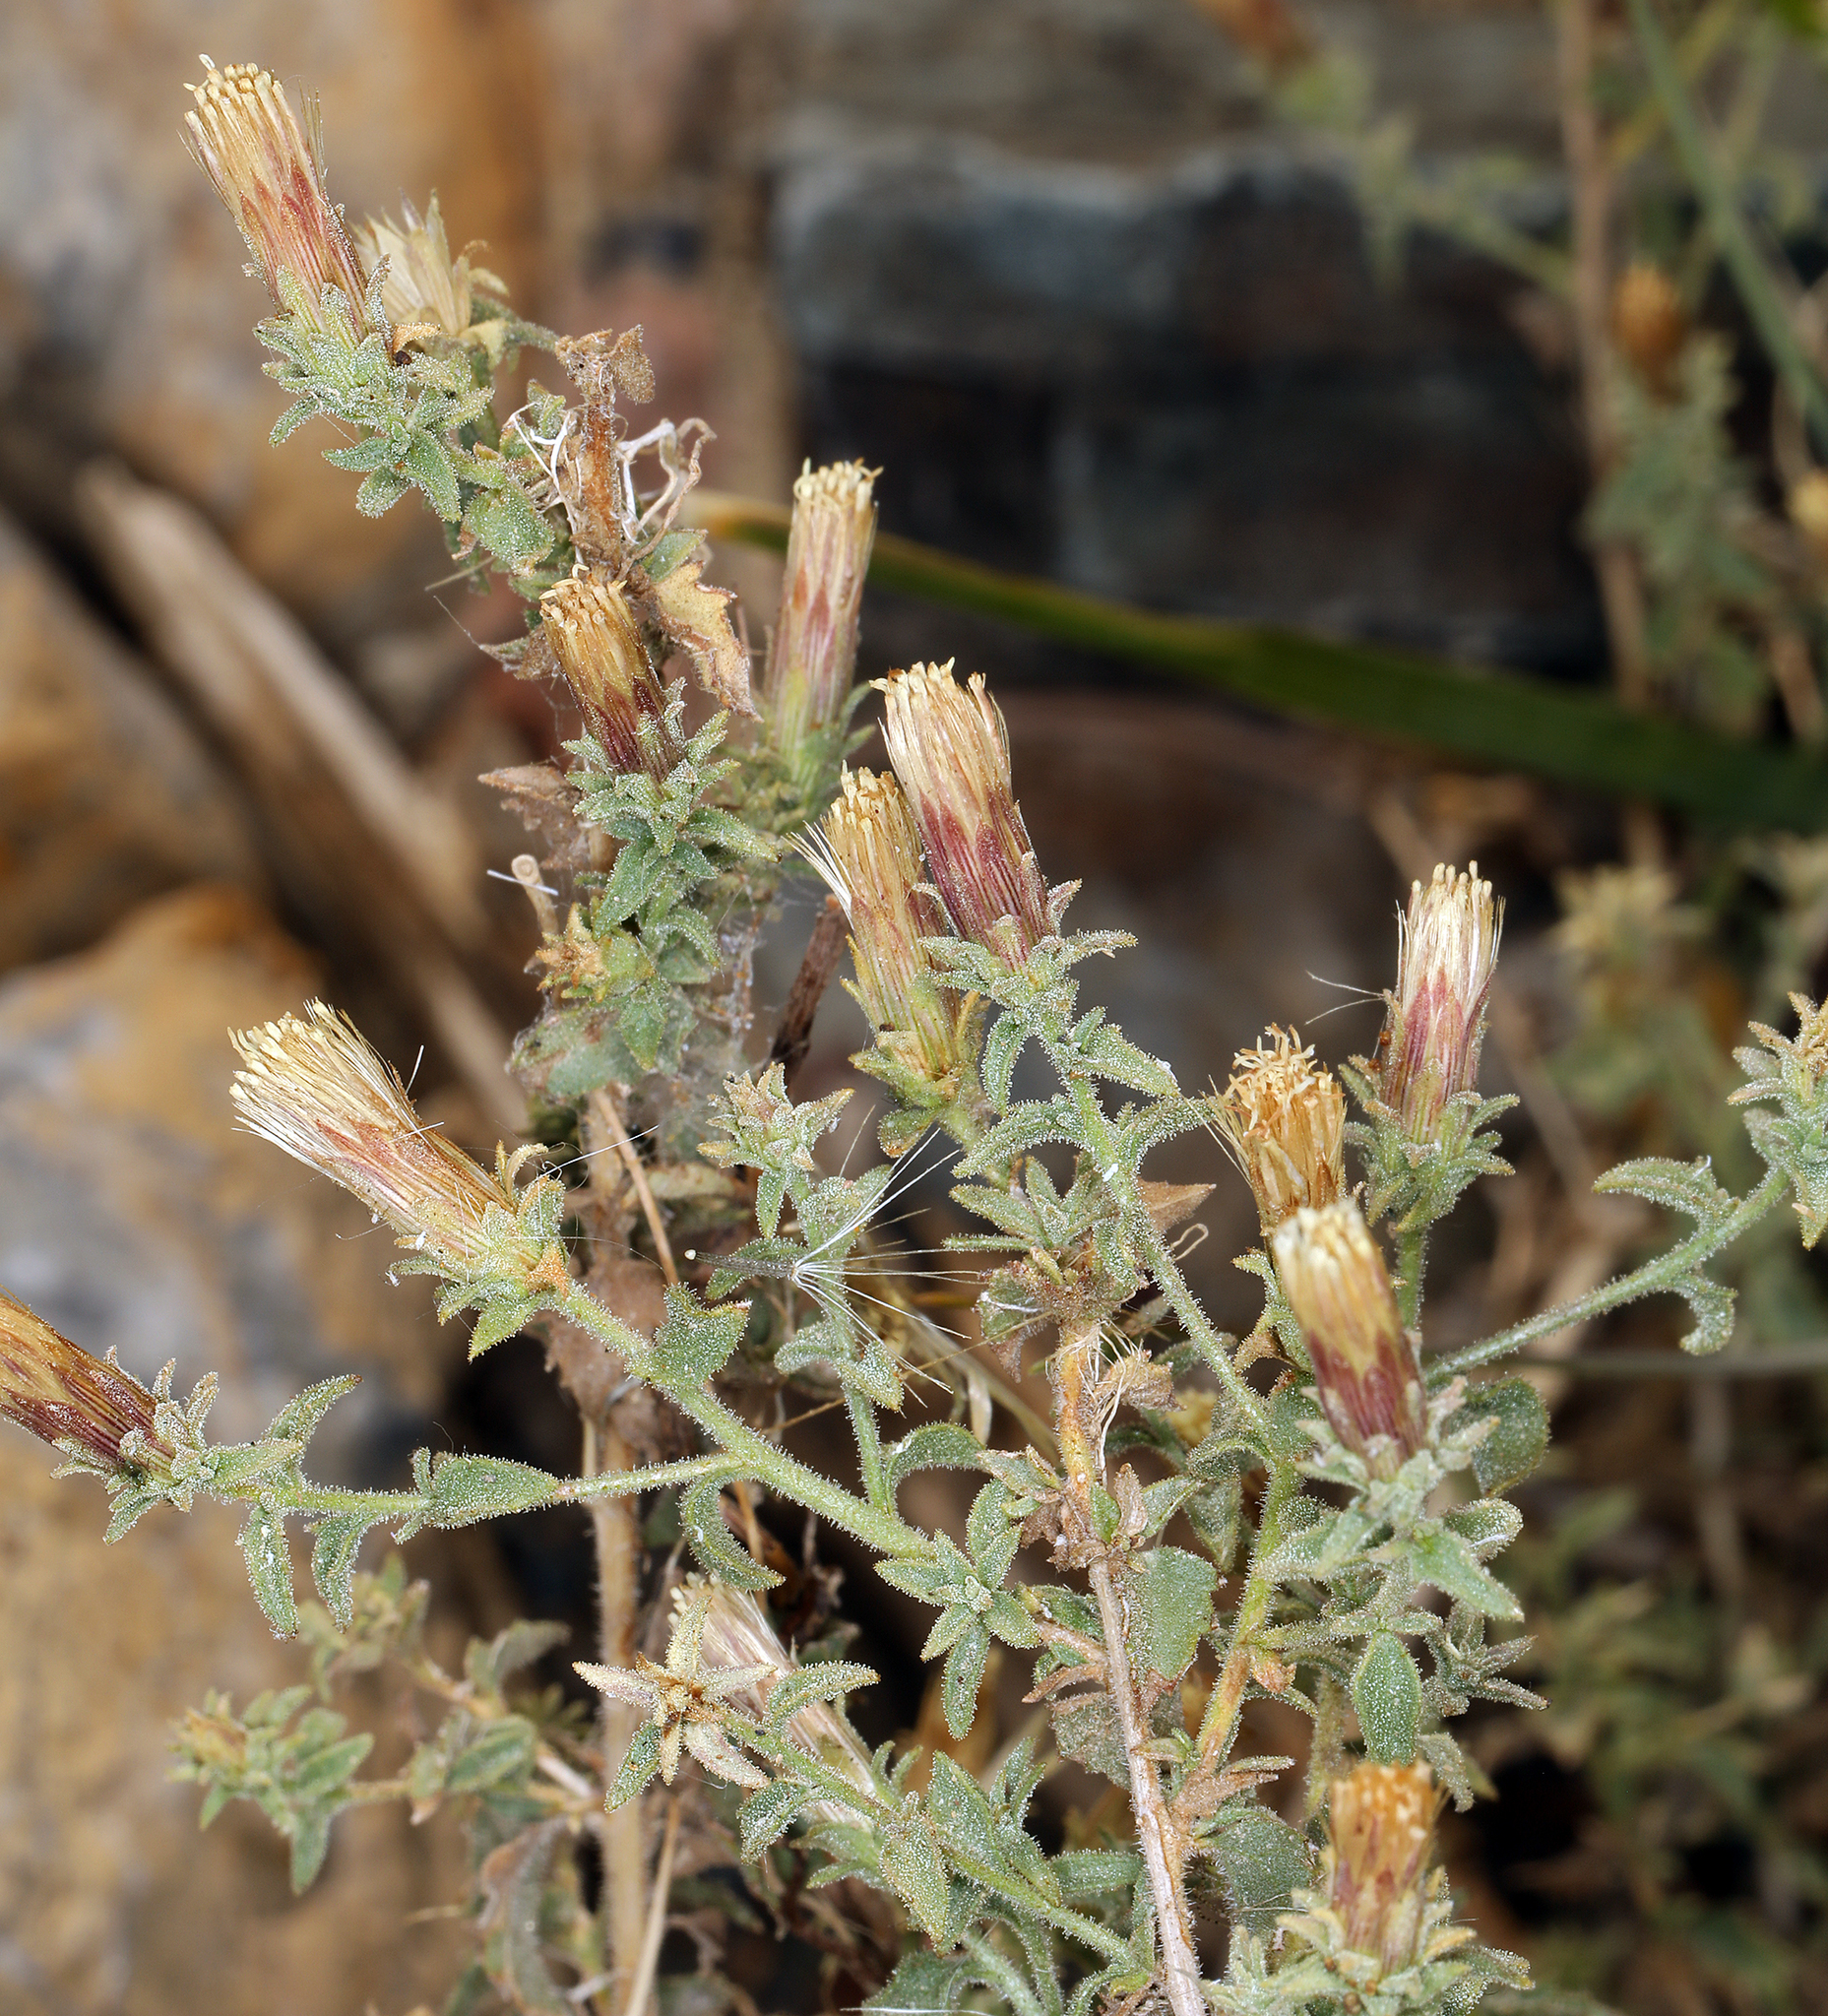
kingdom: Plantae
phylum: Tracheophyta
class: Magnoliopsida
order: Asterales
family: Asteraceae
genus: Brickellia
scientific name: Brickellia microphylla
